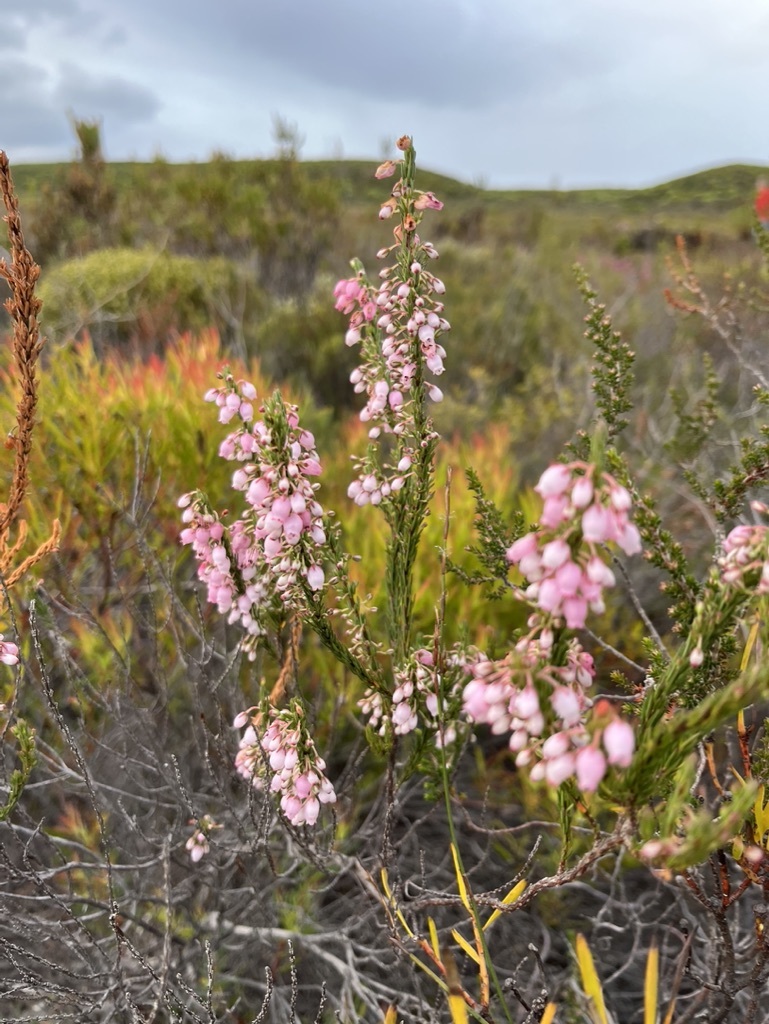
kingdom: Plantae
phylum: Tracheophyta
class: Magnoliopsida
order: Ericales
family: Ericaceae
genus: Erica
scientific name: Erica filipendula
